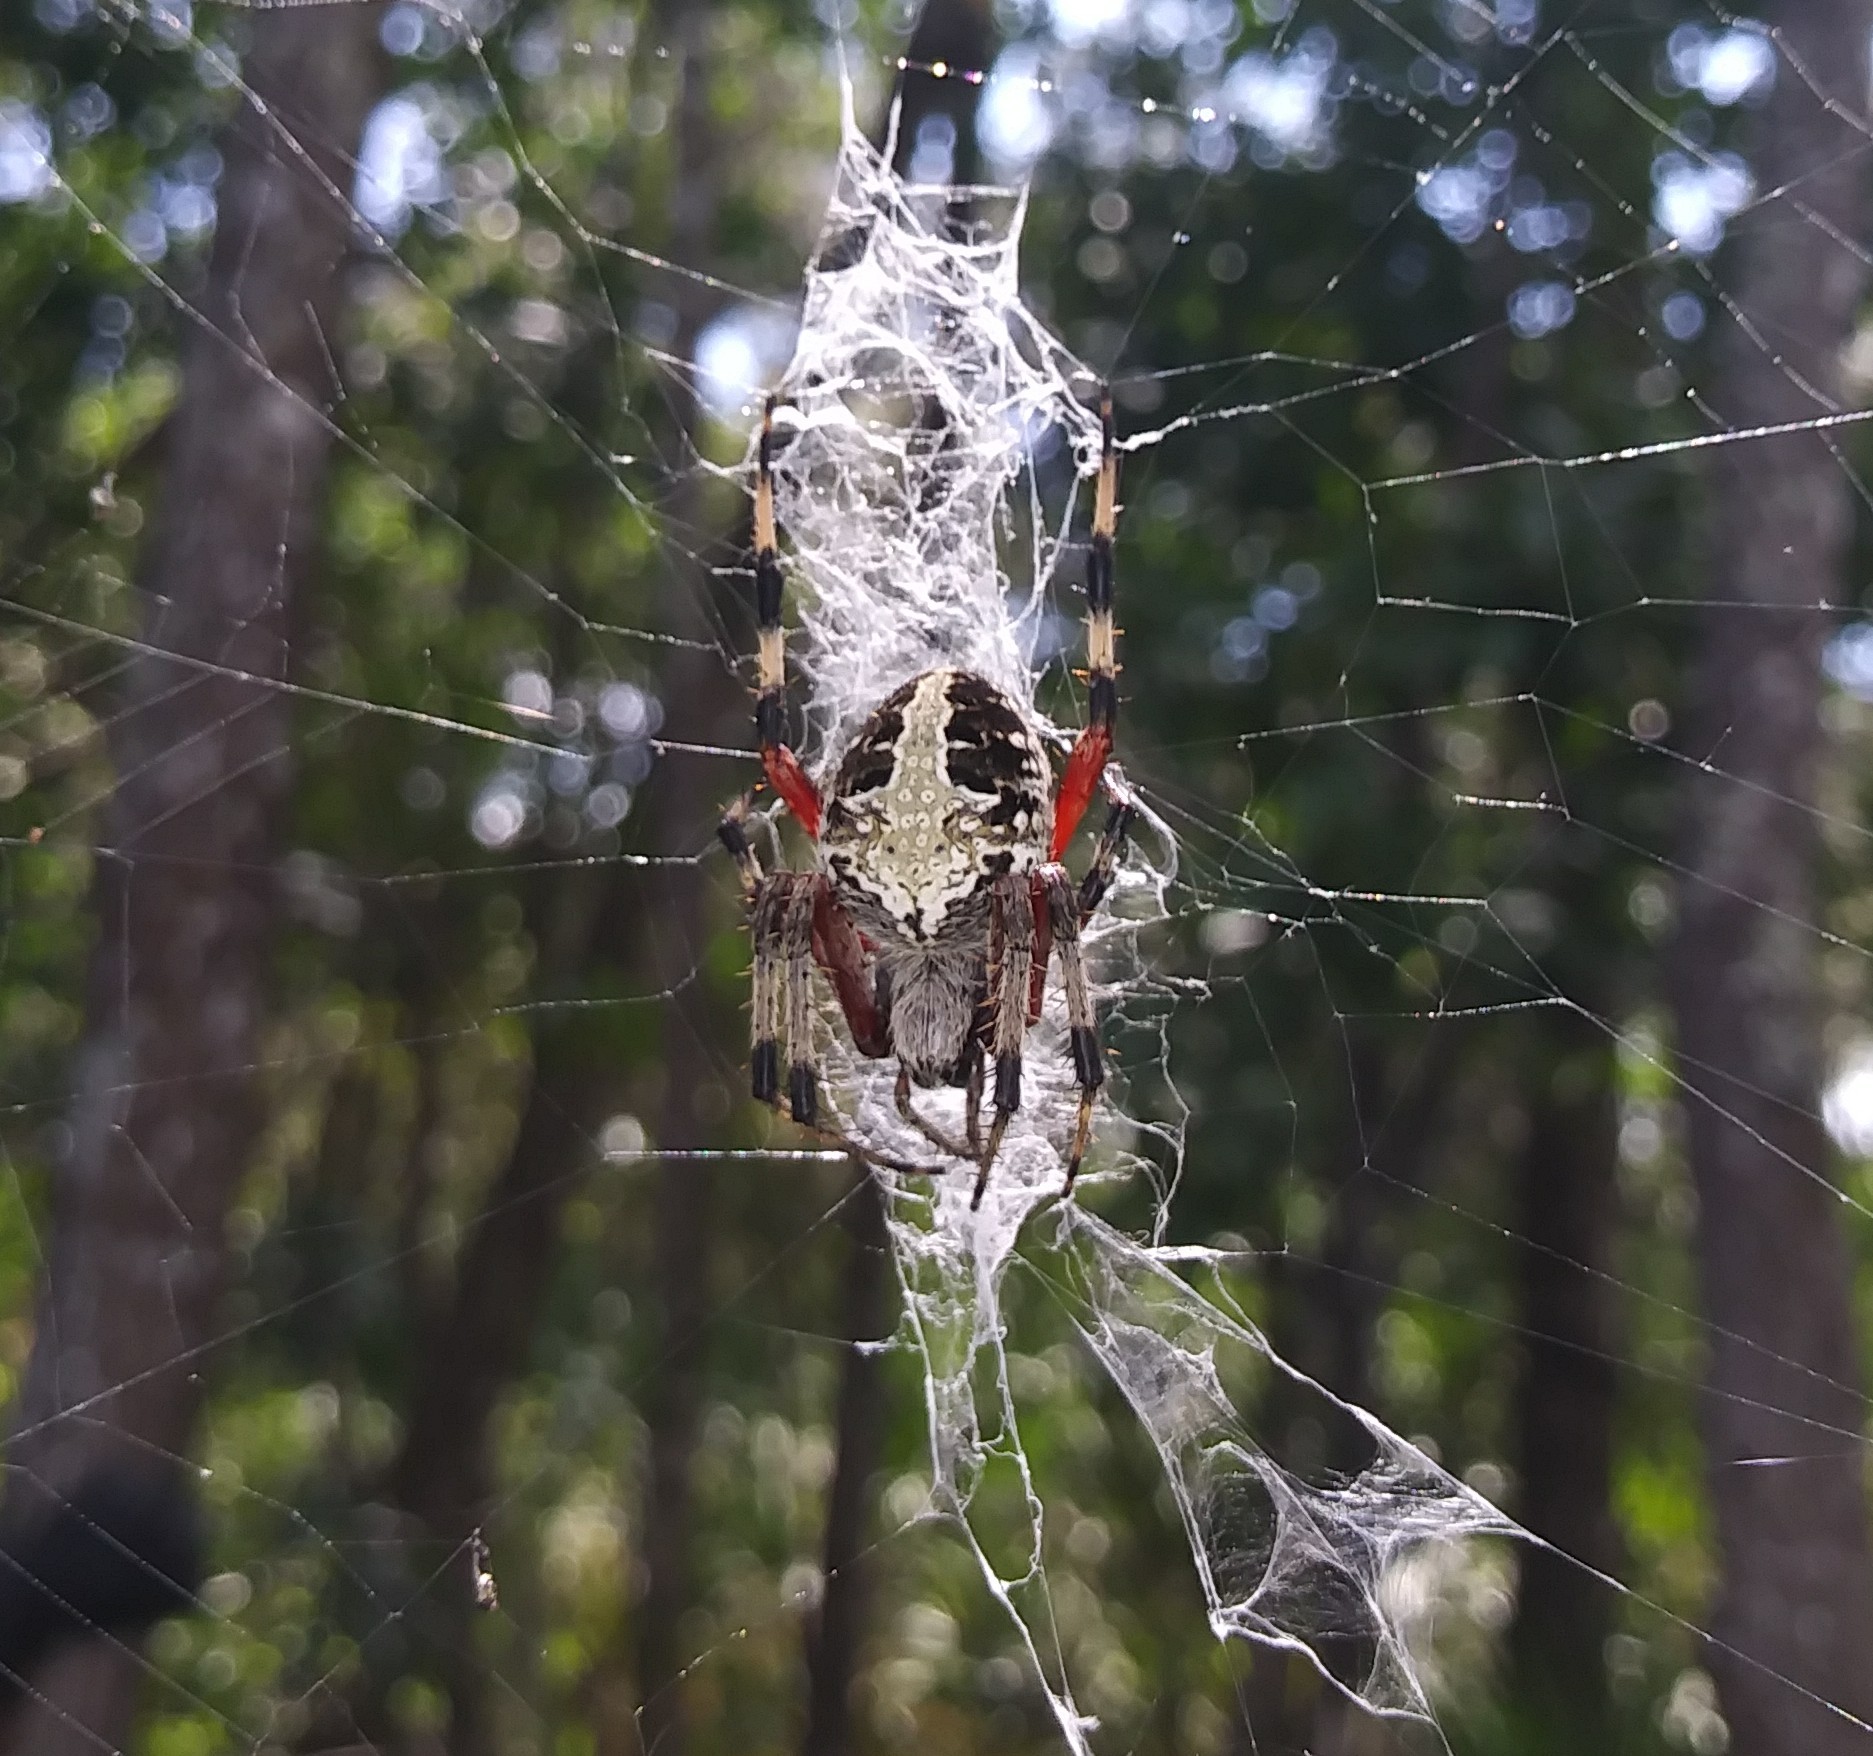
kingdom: Animalia
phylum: Arthropoda
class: Arachnida
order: Araneae
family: Araneidae
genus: Neoscona
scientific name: Neoscona domiciliorum
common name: Red-femured spotted orbweaver
